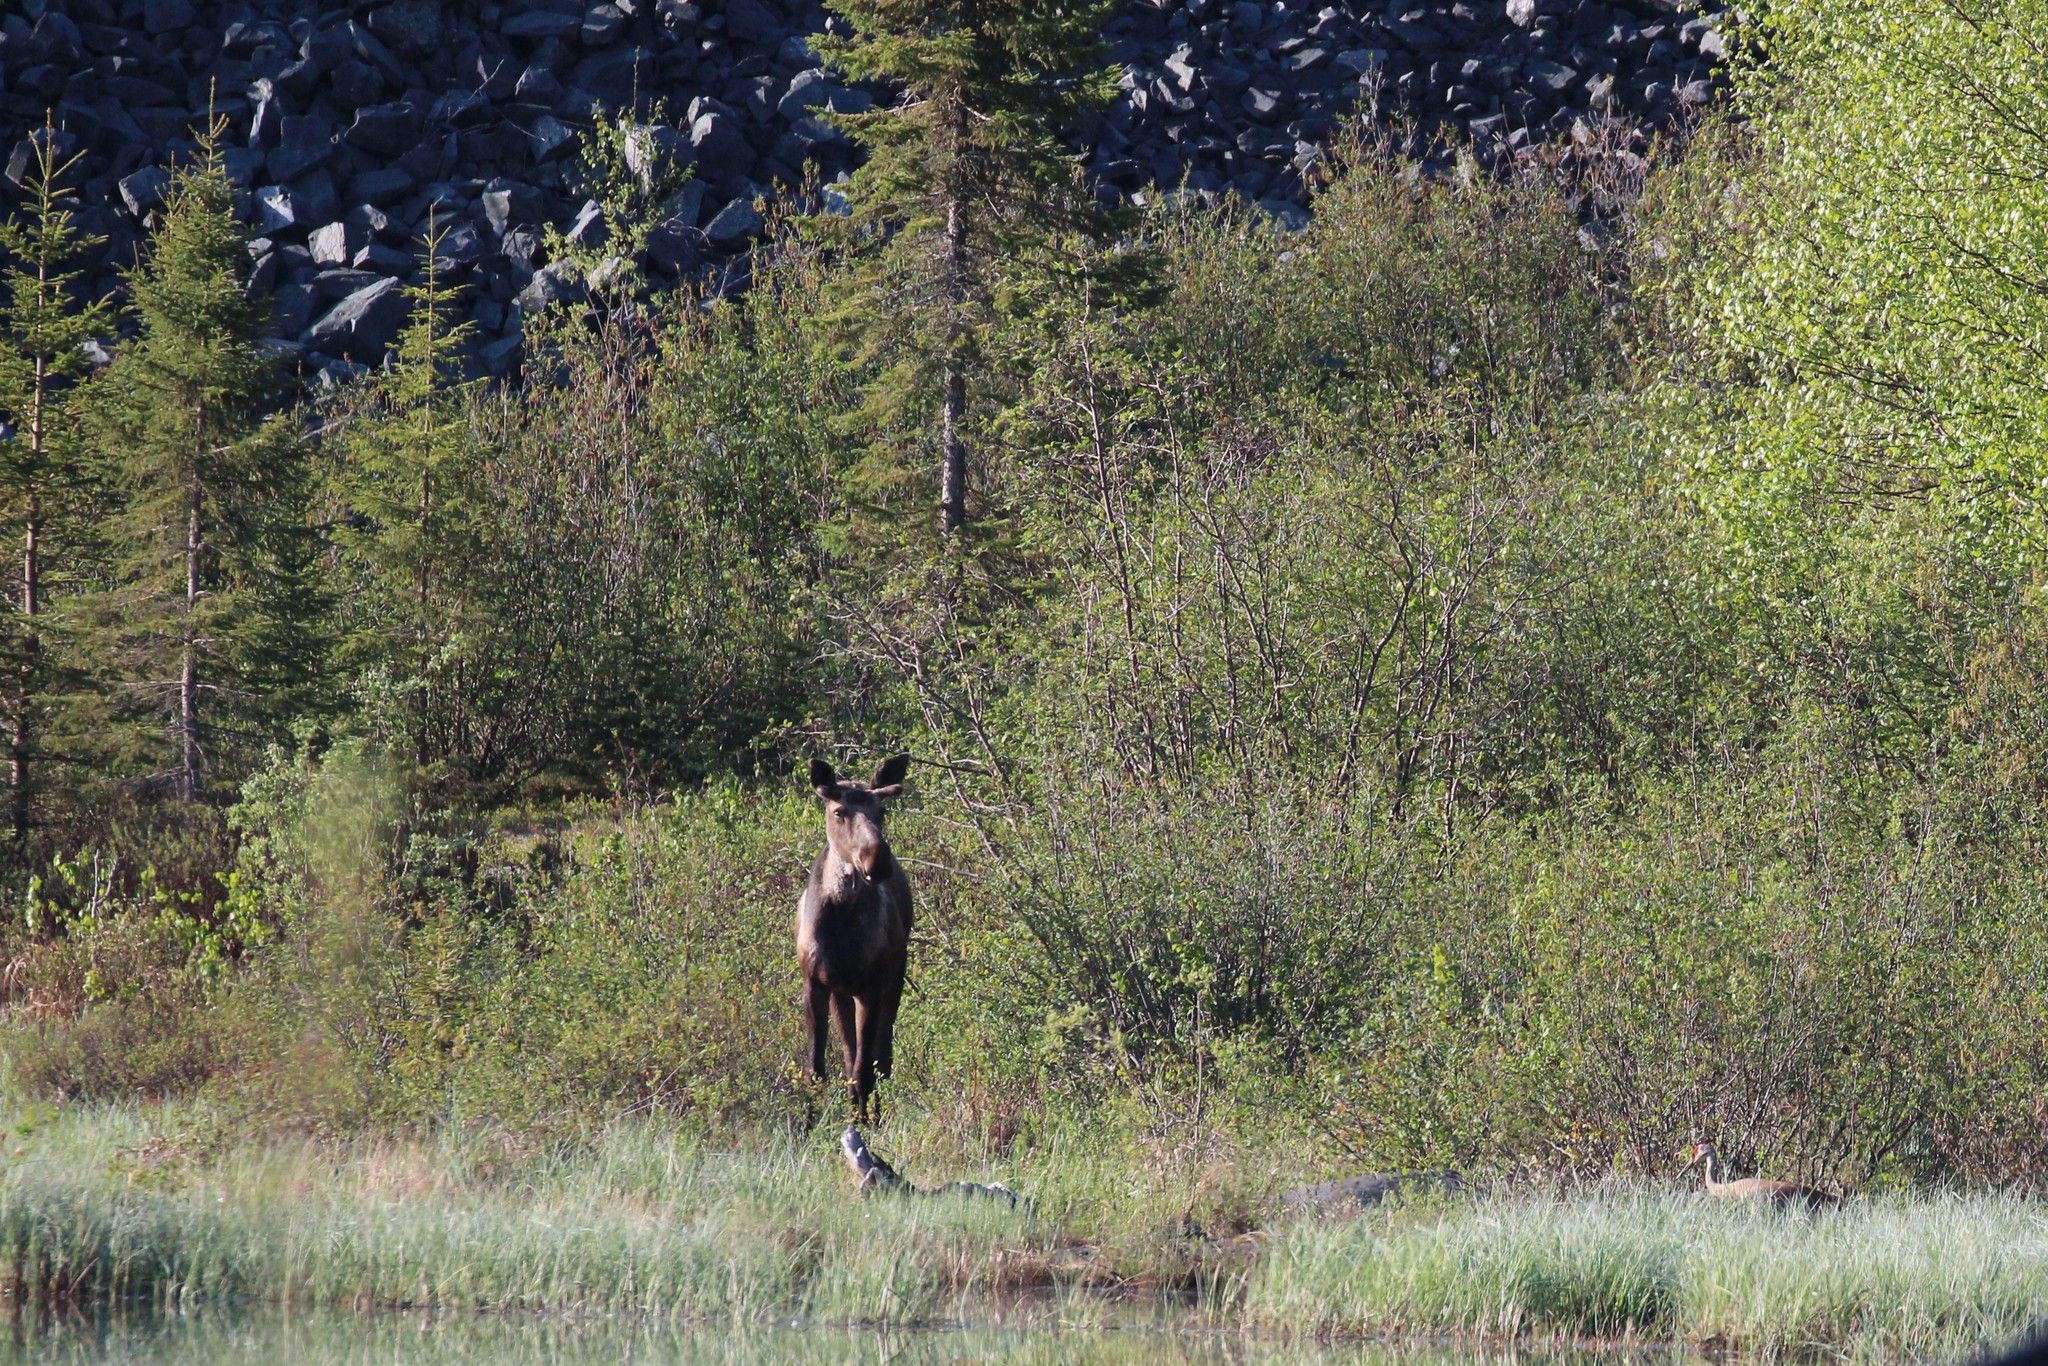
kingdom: Animalia
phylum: Chordata
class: Mammalia
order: Artiodactyla
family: Cervidae
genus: Alces
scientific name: Alces alces
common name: Moose
